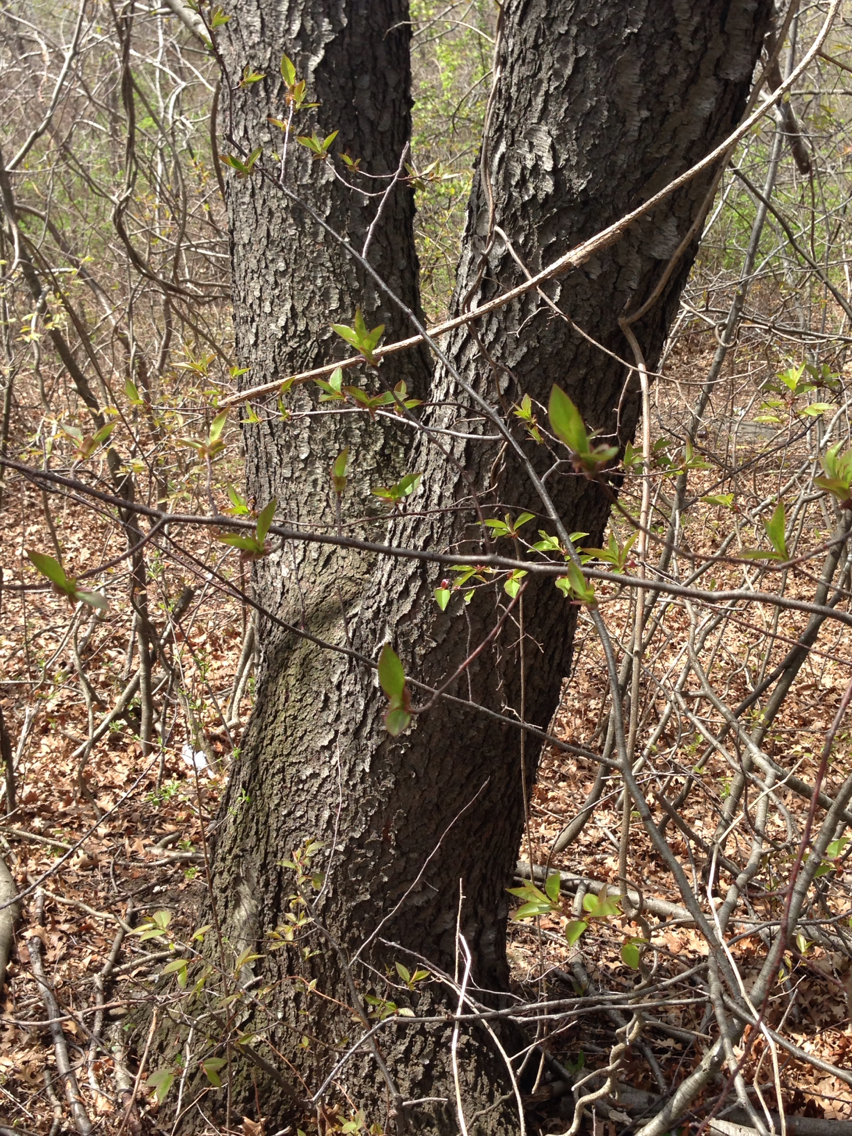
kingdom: Plantae
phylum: Tracheophyta
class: Magnoliopsida
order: Rosales
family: Rosaceae
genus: Prunus
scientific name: Prunus serotina
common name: Black cherry
